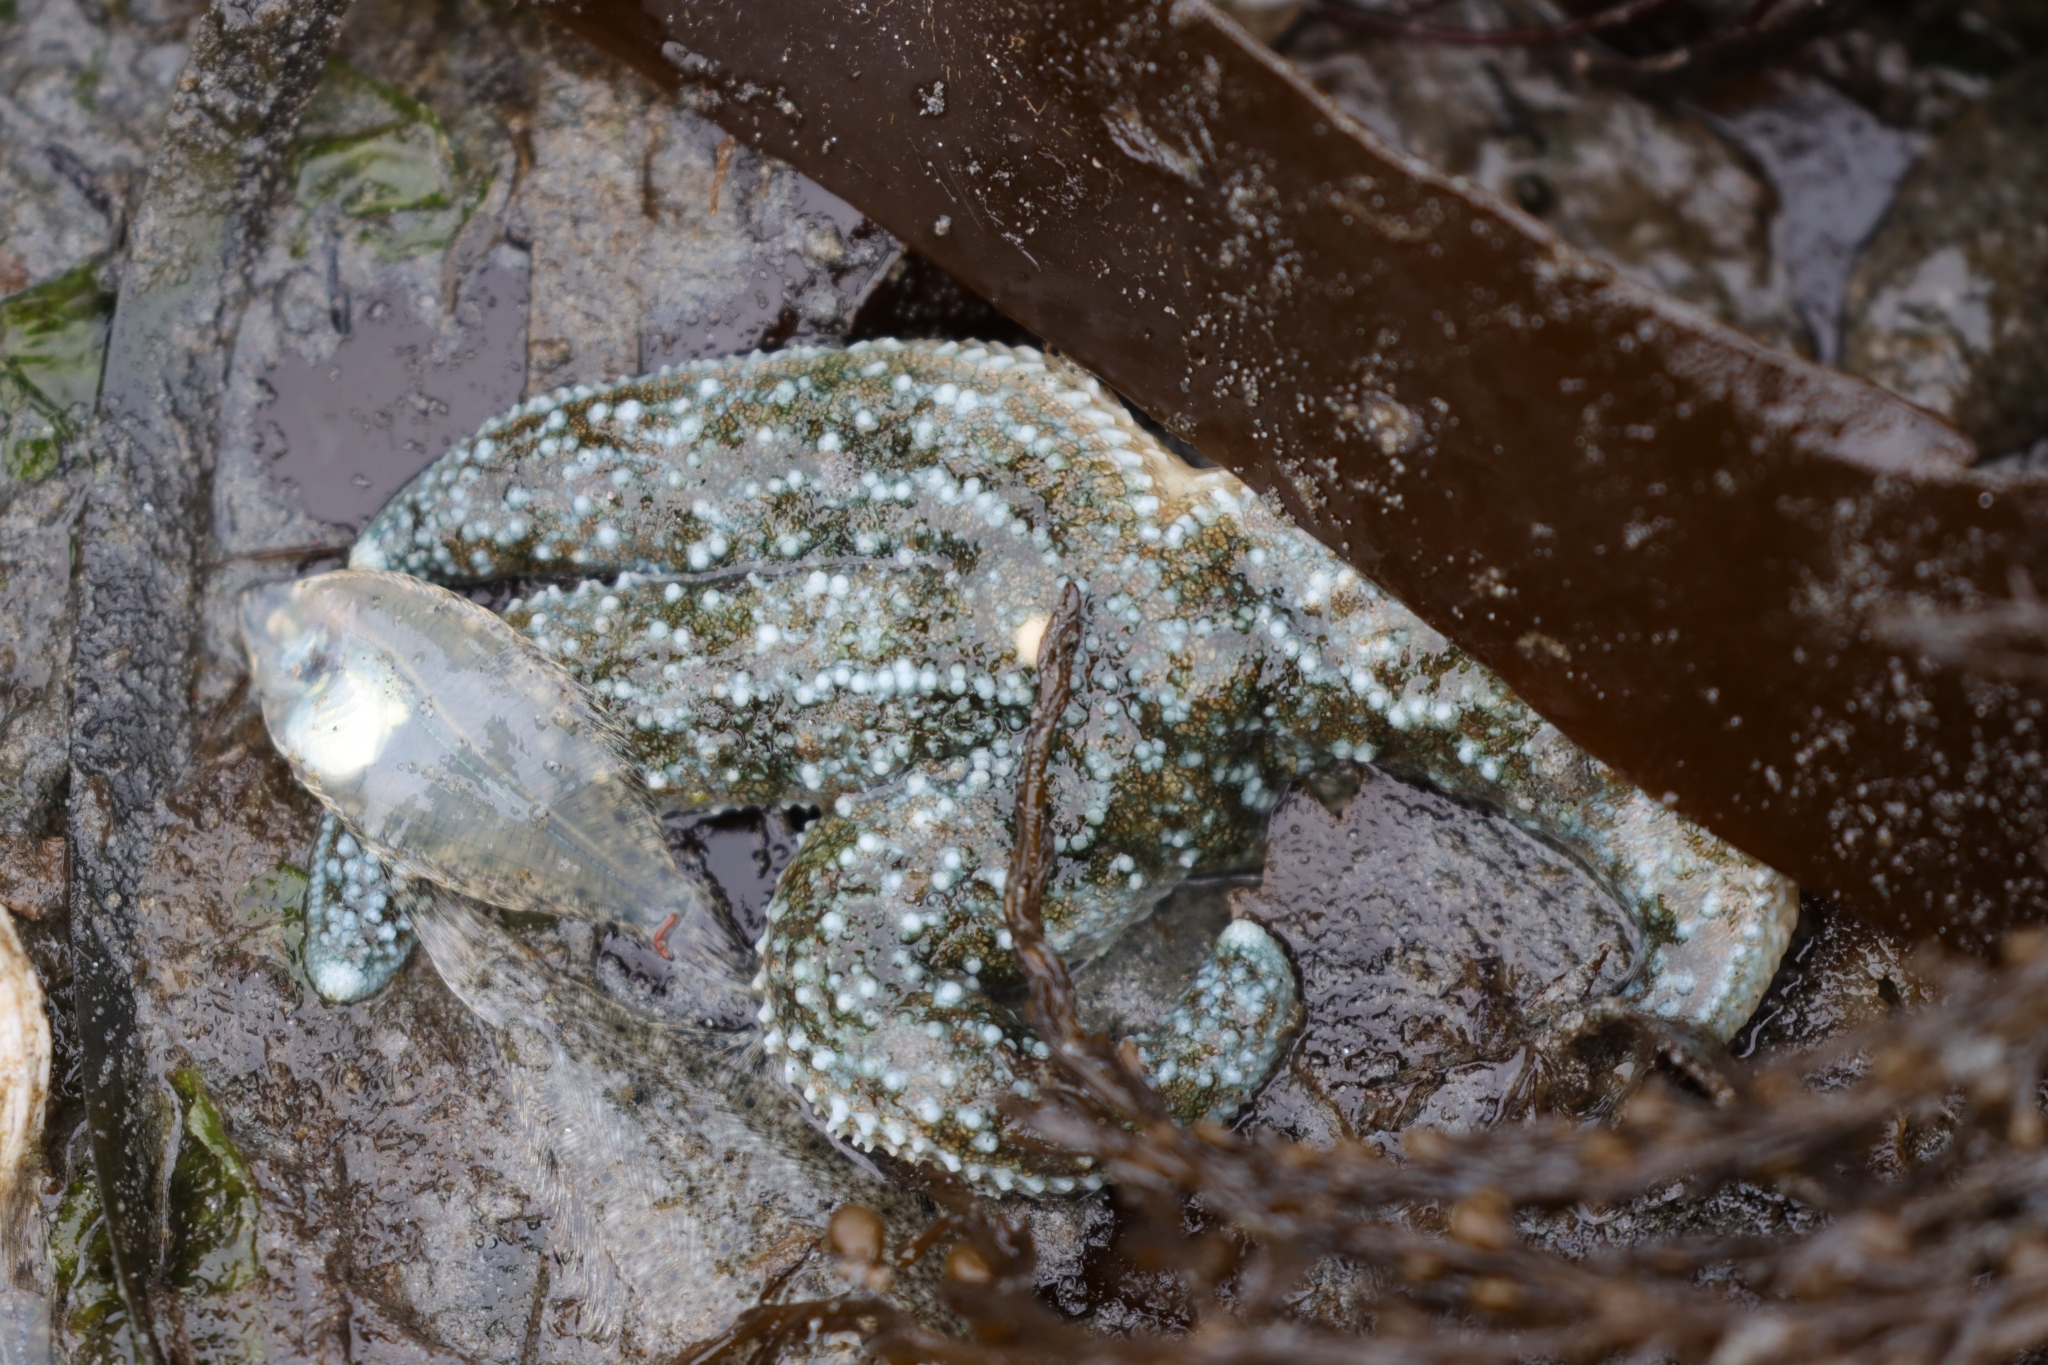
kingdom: Animalia
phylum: Echinodermata
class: Asteroidea
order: Forcipulatida
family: Asteriidae
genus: Evasterias
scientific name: Evasterias troschelii
